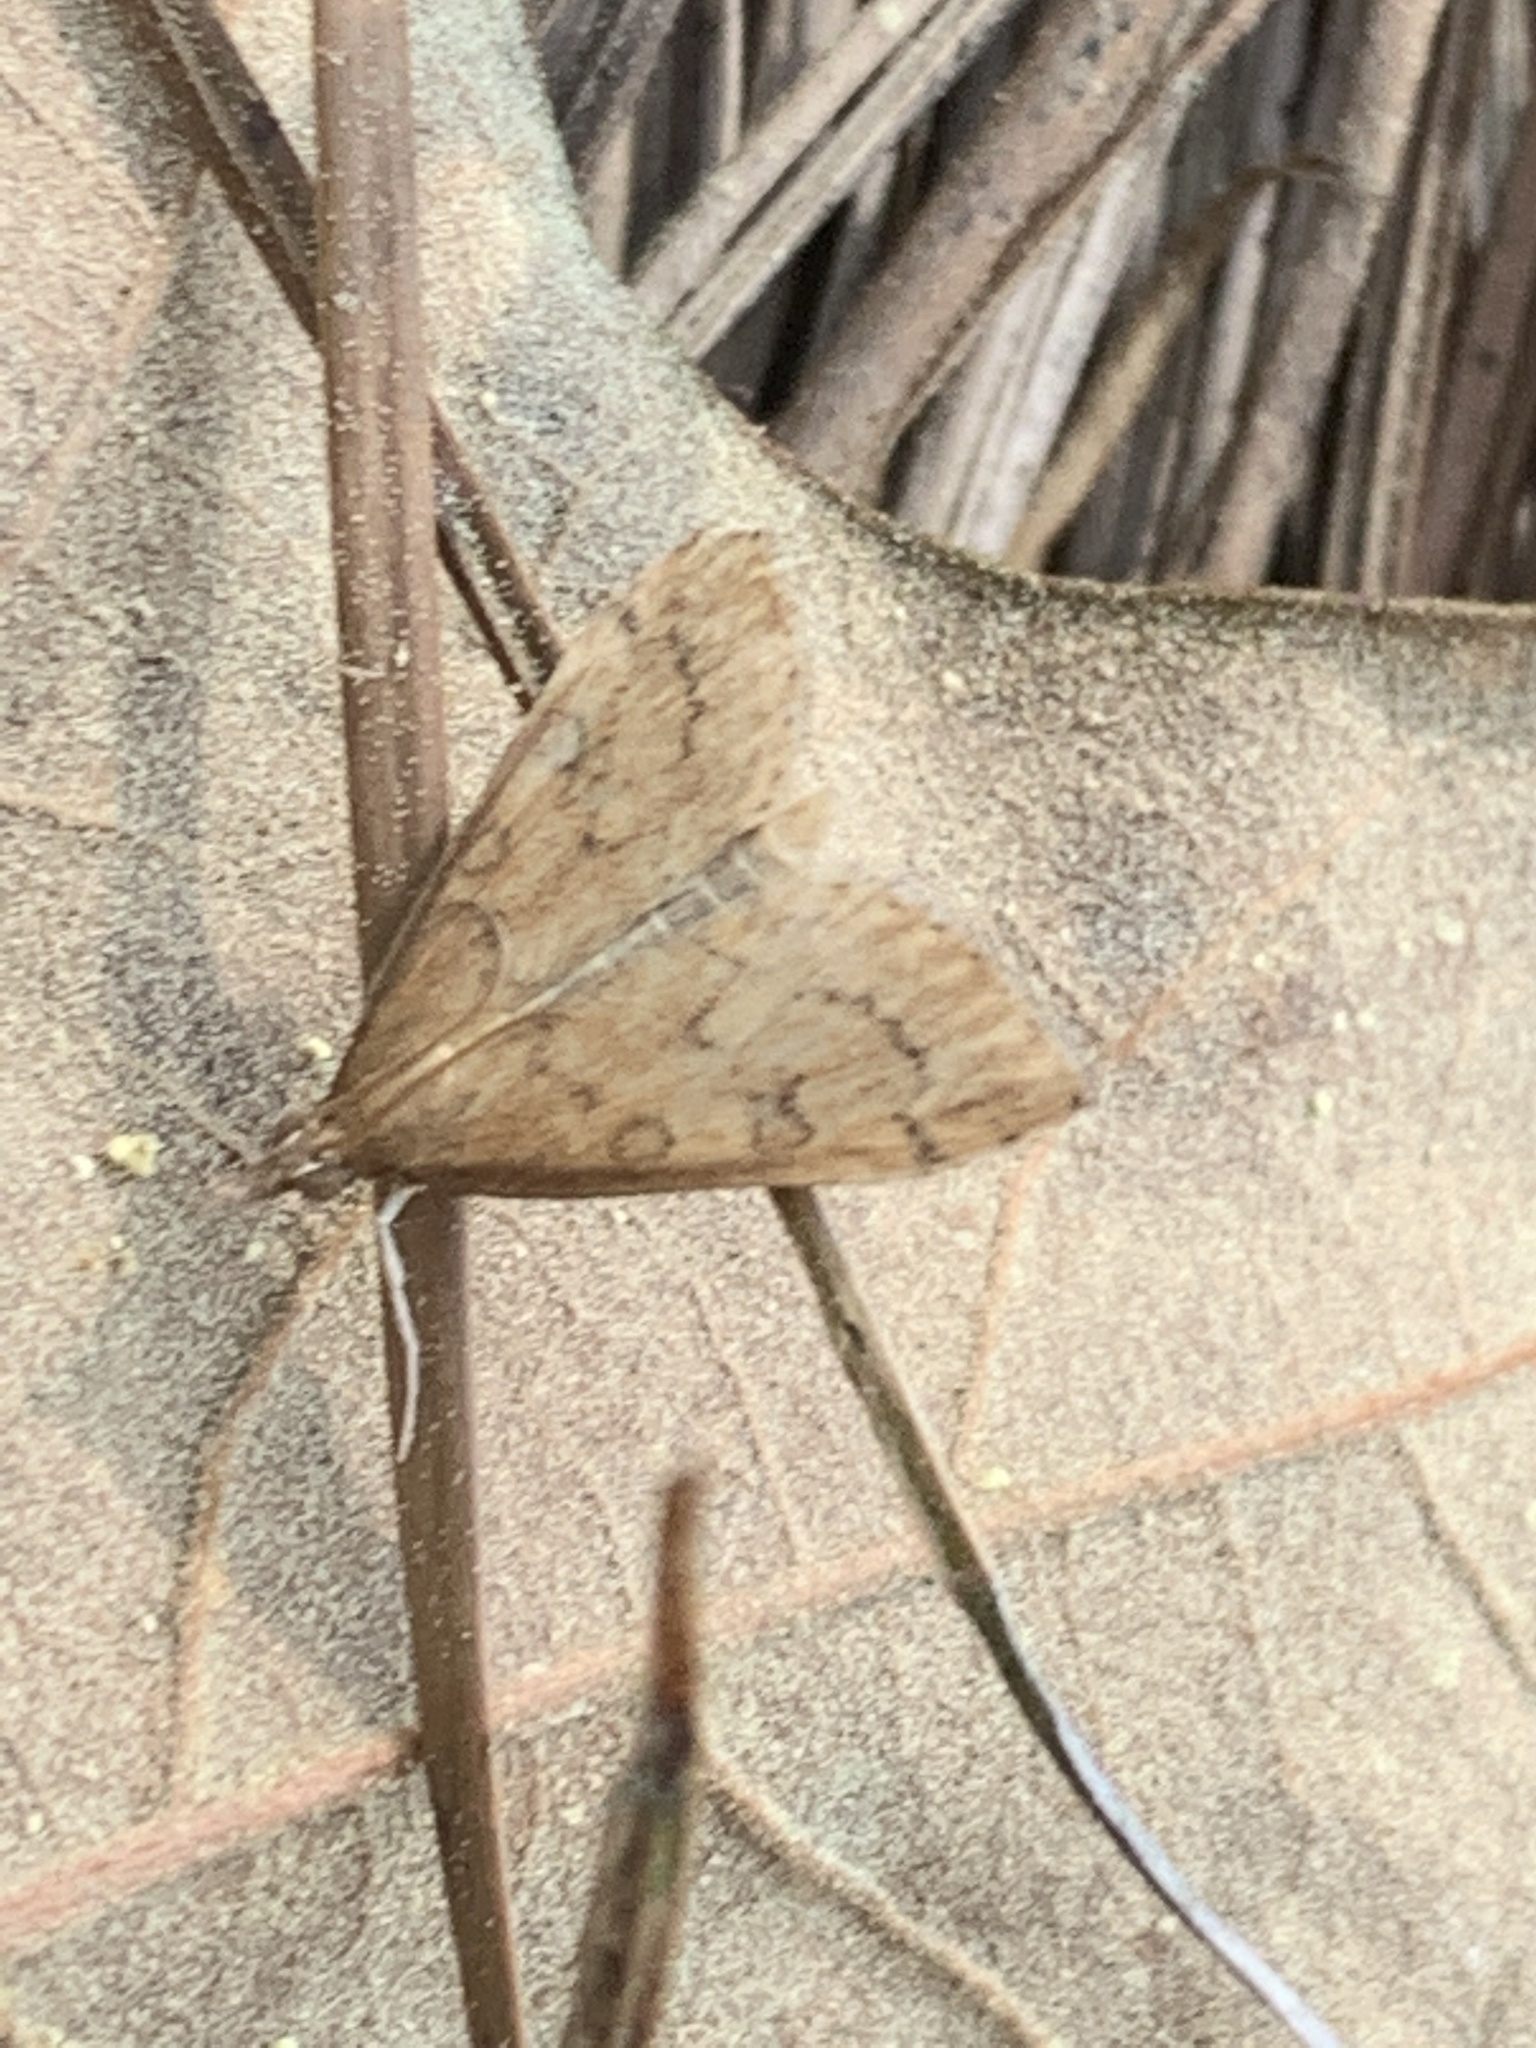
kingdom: Animalia
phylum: Arthropoda
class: Insecta
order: Lepidoptera
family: Crambidae
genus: Udea
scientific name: Udea rubigalis
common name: Celery leaftier moth
